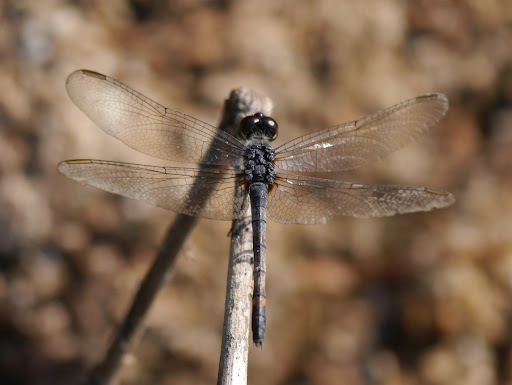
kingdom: Animalia
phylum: Arthropoda
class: Insecta
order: Odonata
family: Libellulidae
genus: Erythrodiplax
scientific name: Erythrodiplax berenice
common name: Seaside dragonlet
